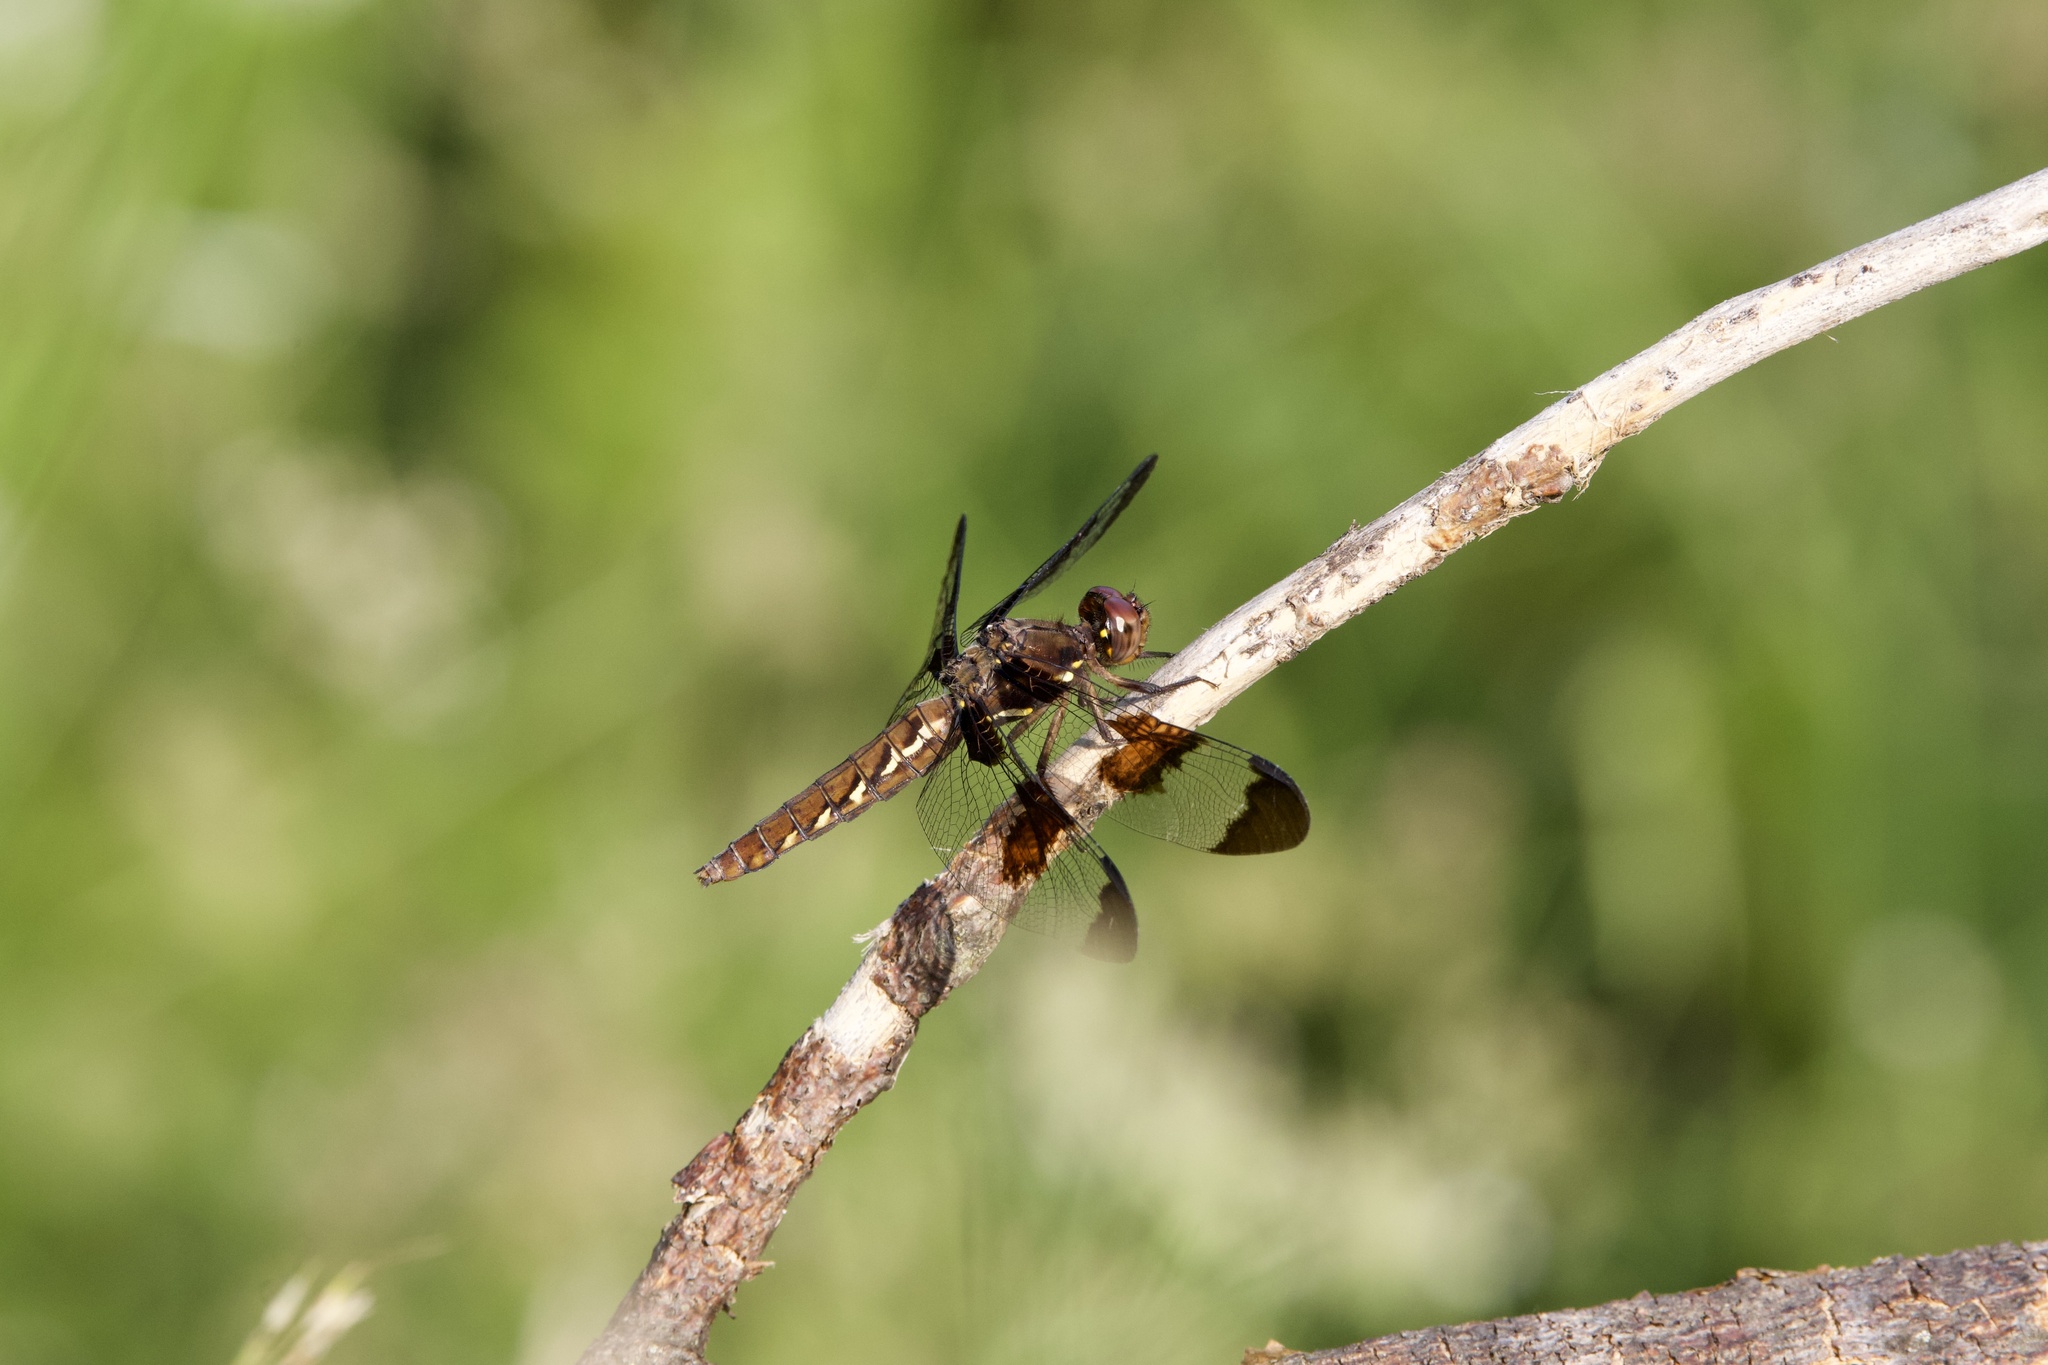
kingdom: Animalia
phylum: Arthropoda
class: Insecta
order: Odonata
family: Libellulidae
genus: Plathemis
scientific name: Plathemis lydia
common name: Common whitetail
